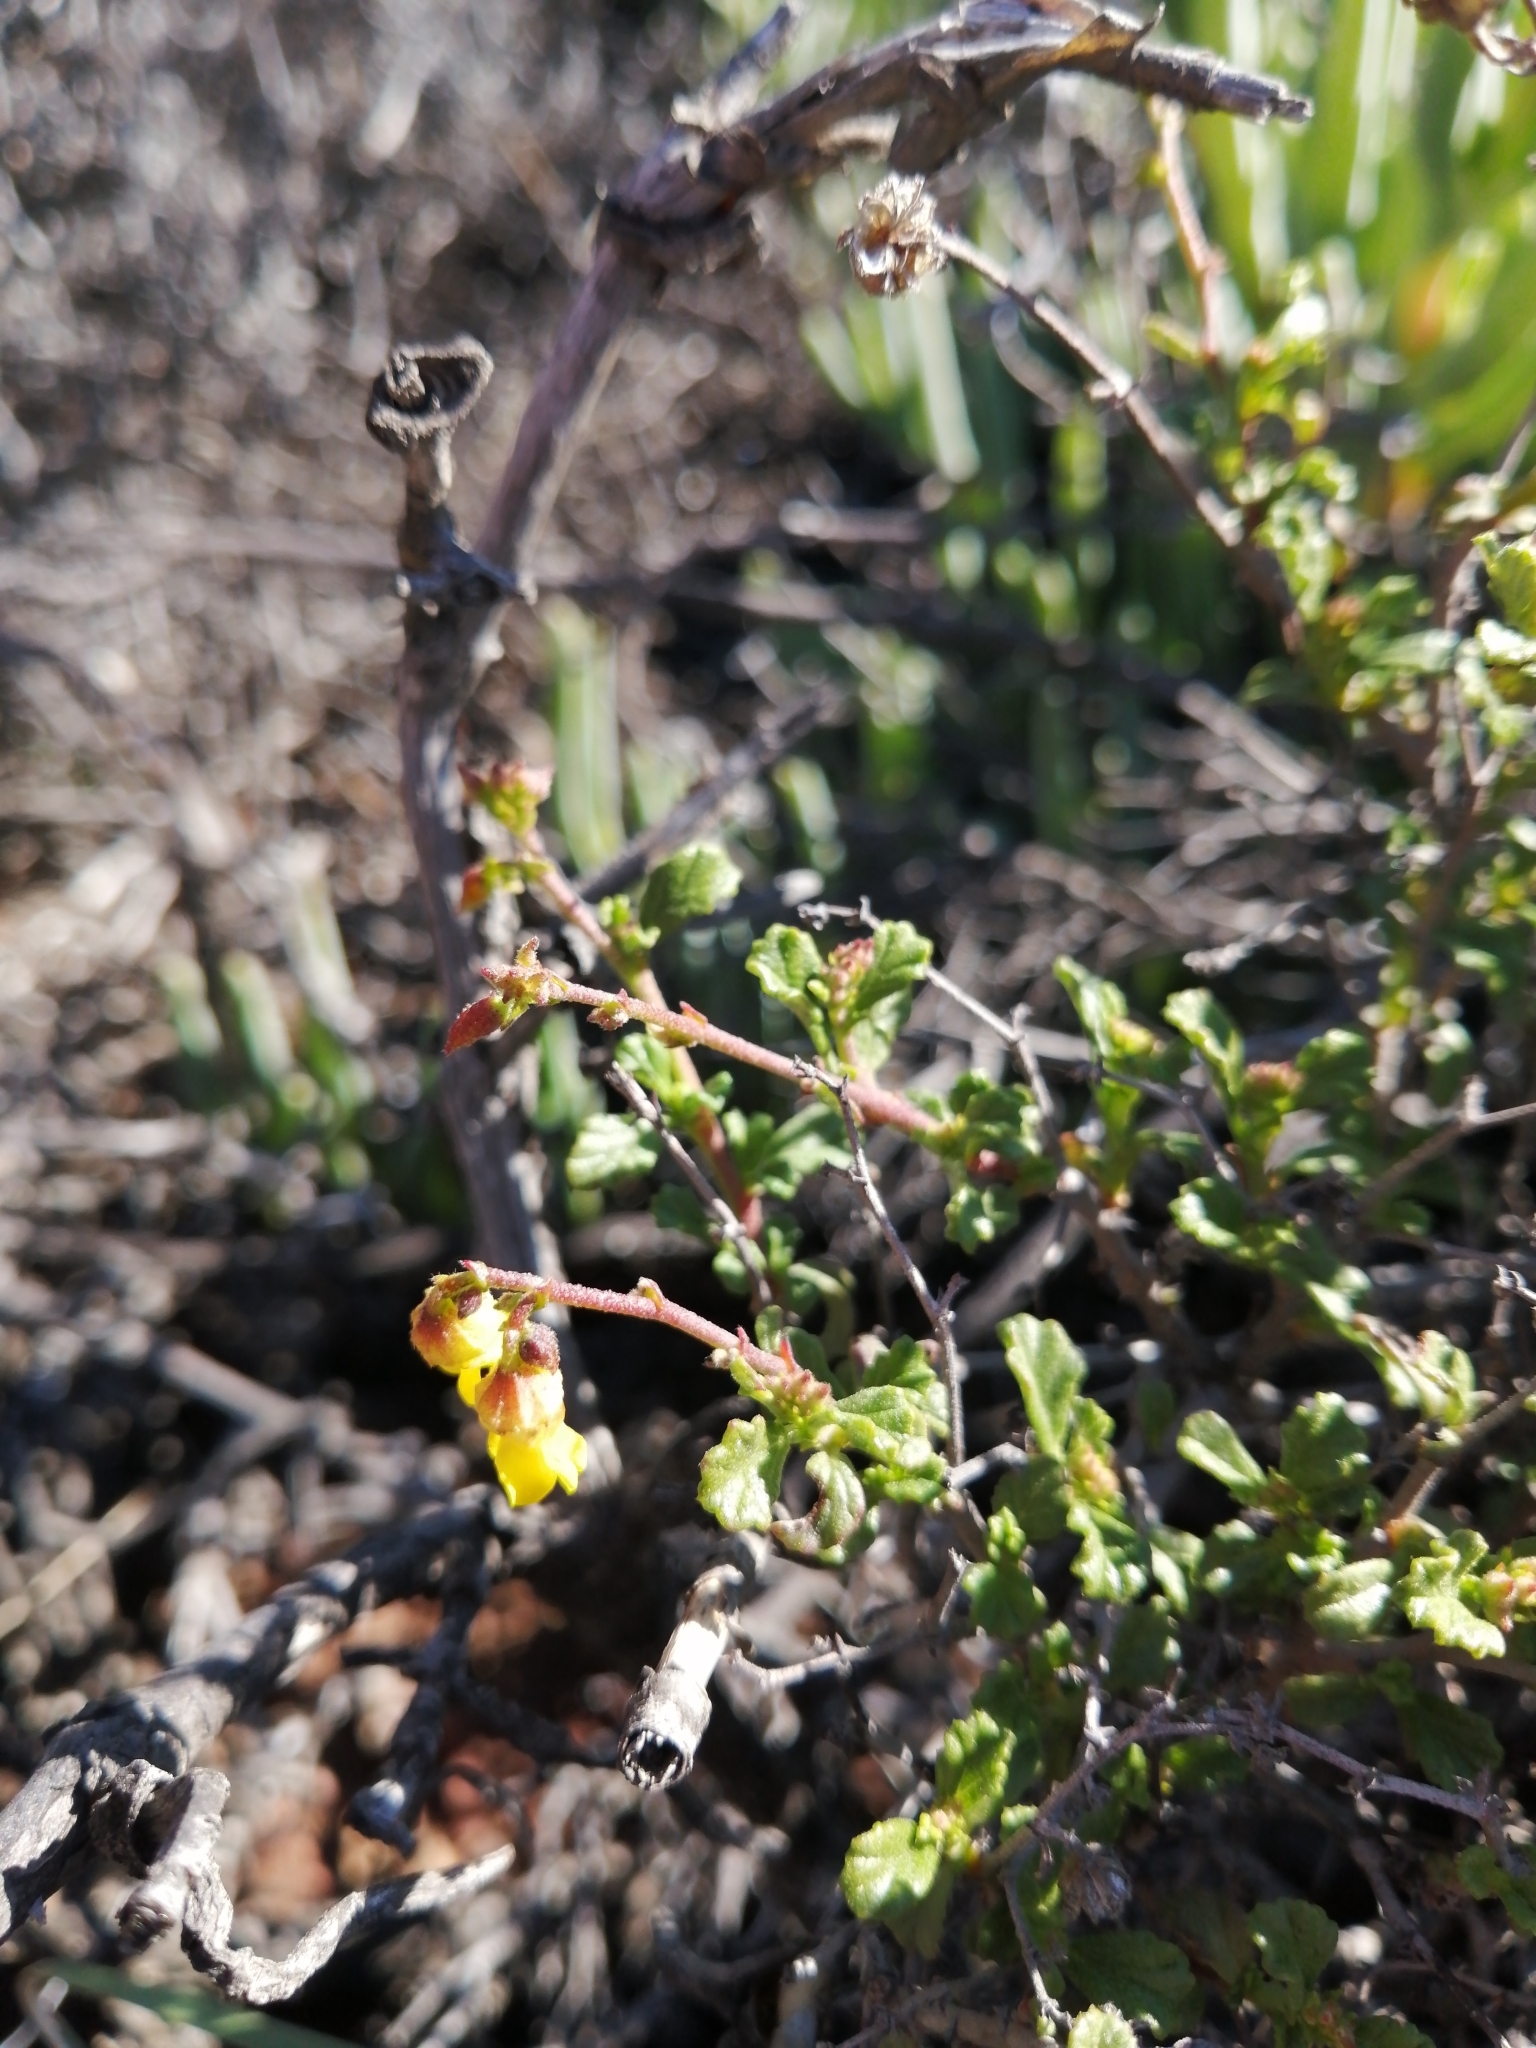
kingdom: Plantae
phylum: Tracheophyta
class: Magnoliopsida
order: Malvales
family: Malvaceae
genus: Hermannia
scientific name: Hermannia alnifolia
